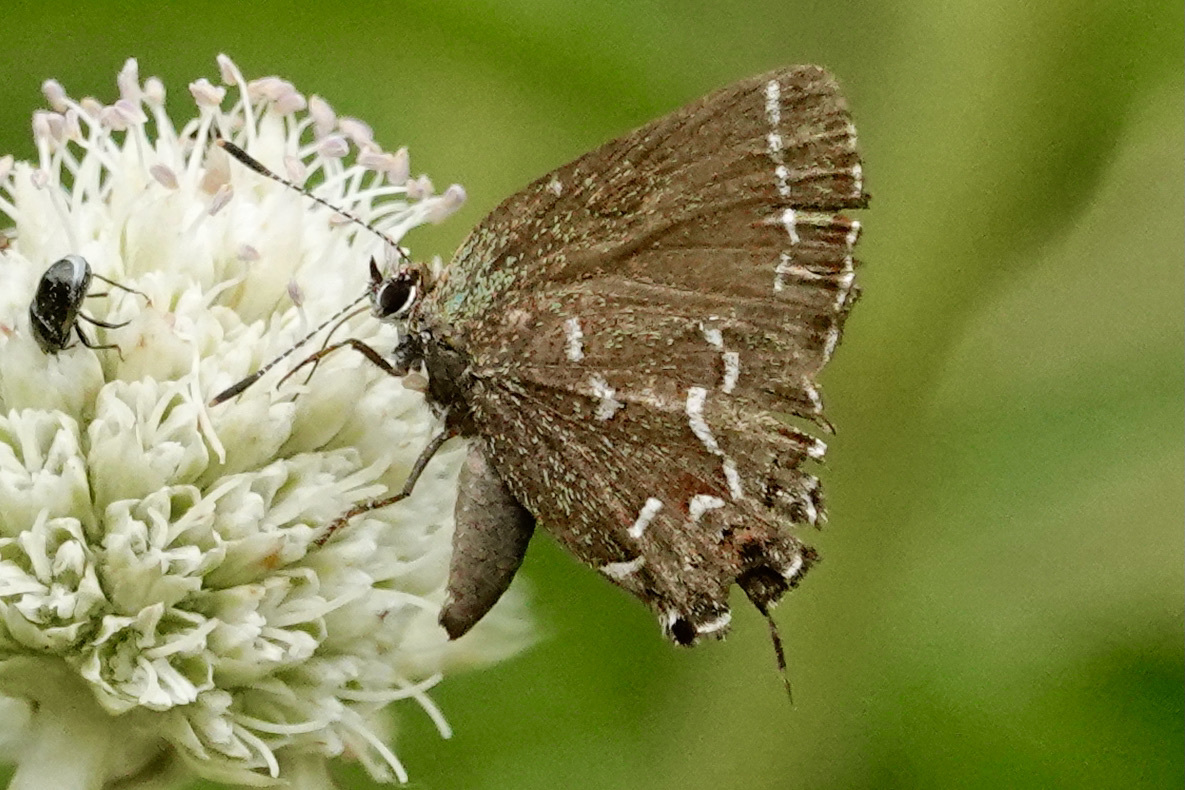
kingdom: Animalia
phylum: Arthropoda
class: Insecta
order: Lepidoptera
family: Lycaenidae
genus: Mitoura
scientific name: Mitoura gryneus
